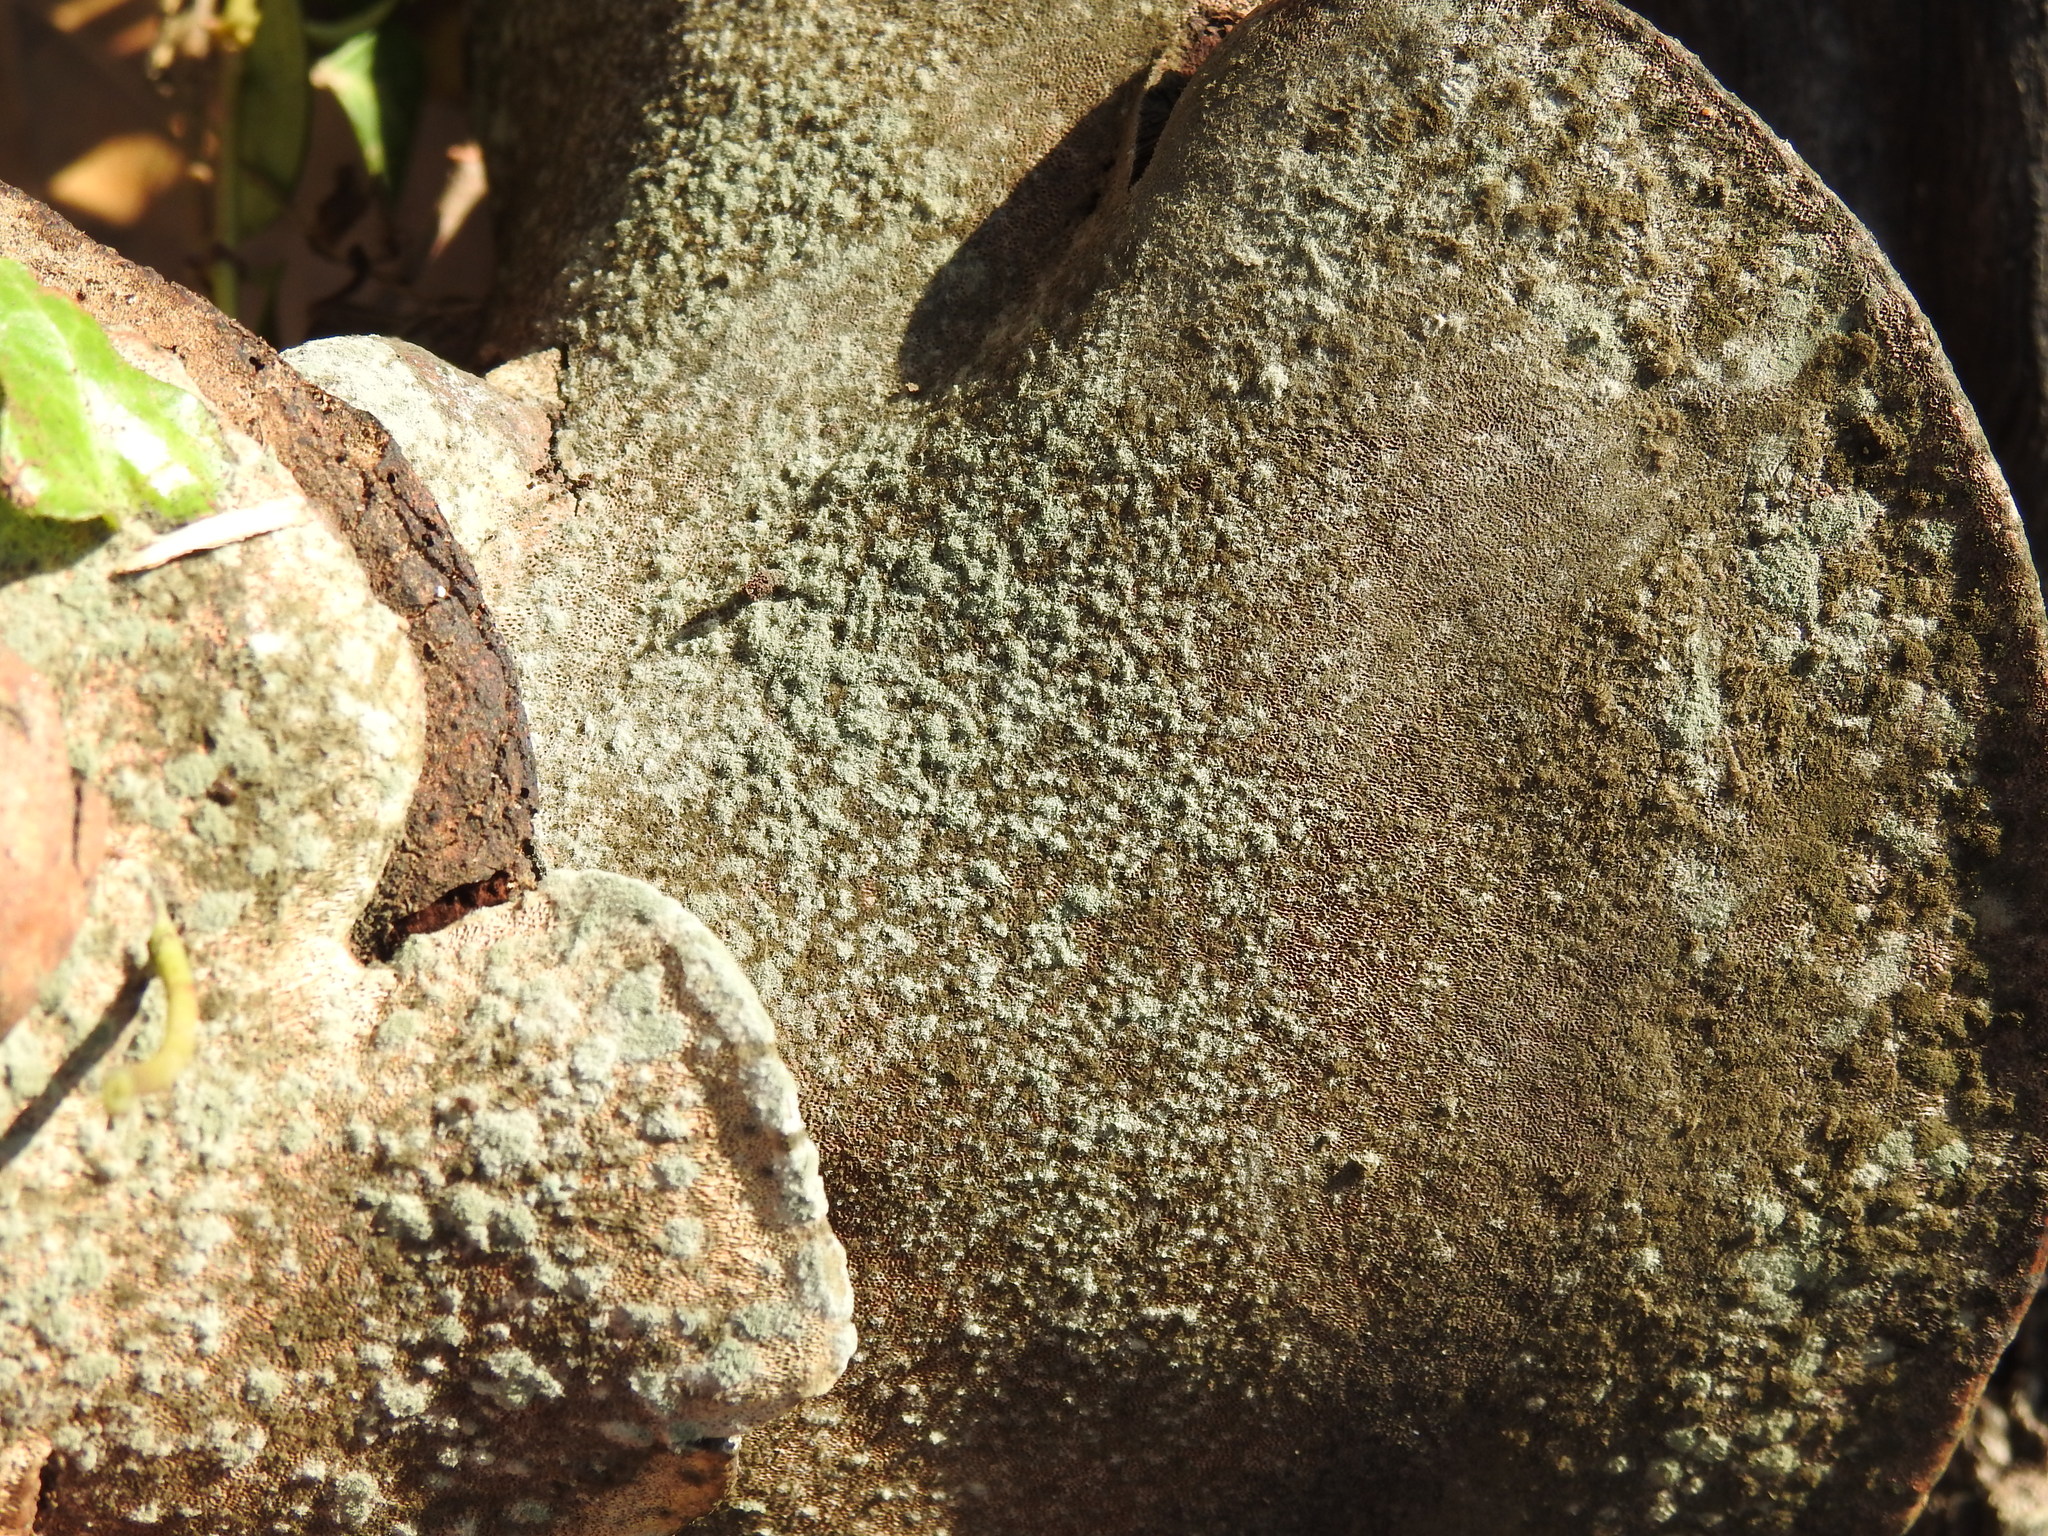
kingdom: Fungi
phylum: Basidiomycota
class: Agaricomycetes
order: Polyporales
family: Polyporaceae
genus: Ganoderma
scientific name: Ganoderma applanatum
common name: Artist's bracket
